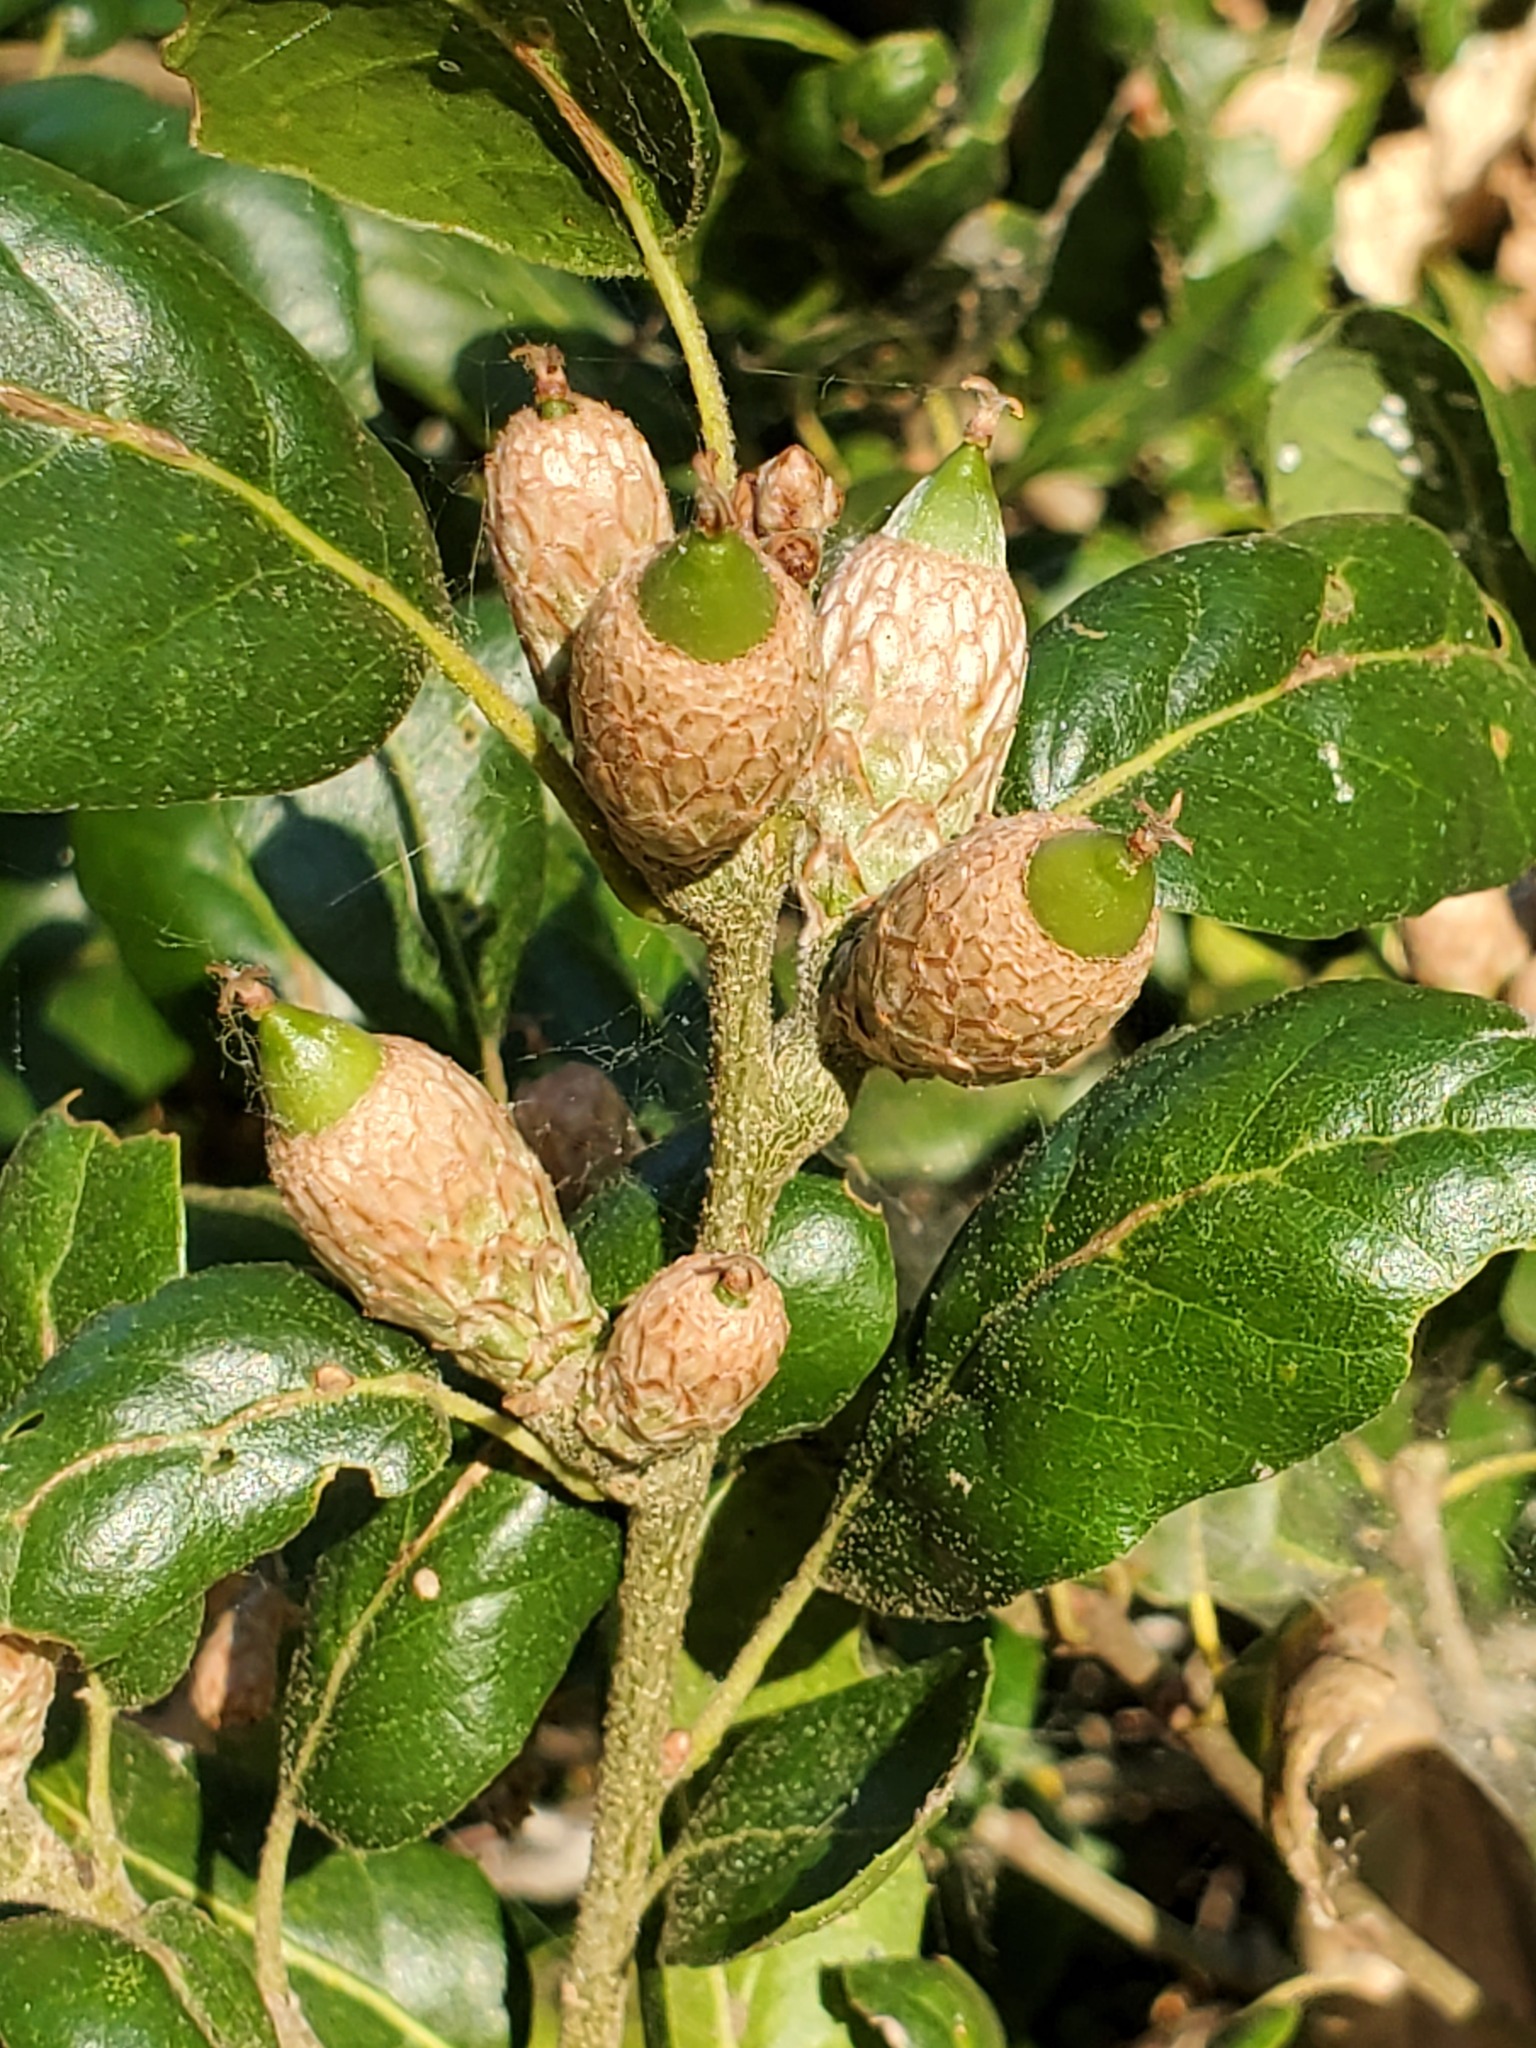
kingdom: Plantae
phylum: Tracheophyta
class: Magnoliopsida
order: Fagales
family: Fagaceae
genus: Quercus
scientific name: Quercus agrifolia
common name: California live oak
